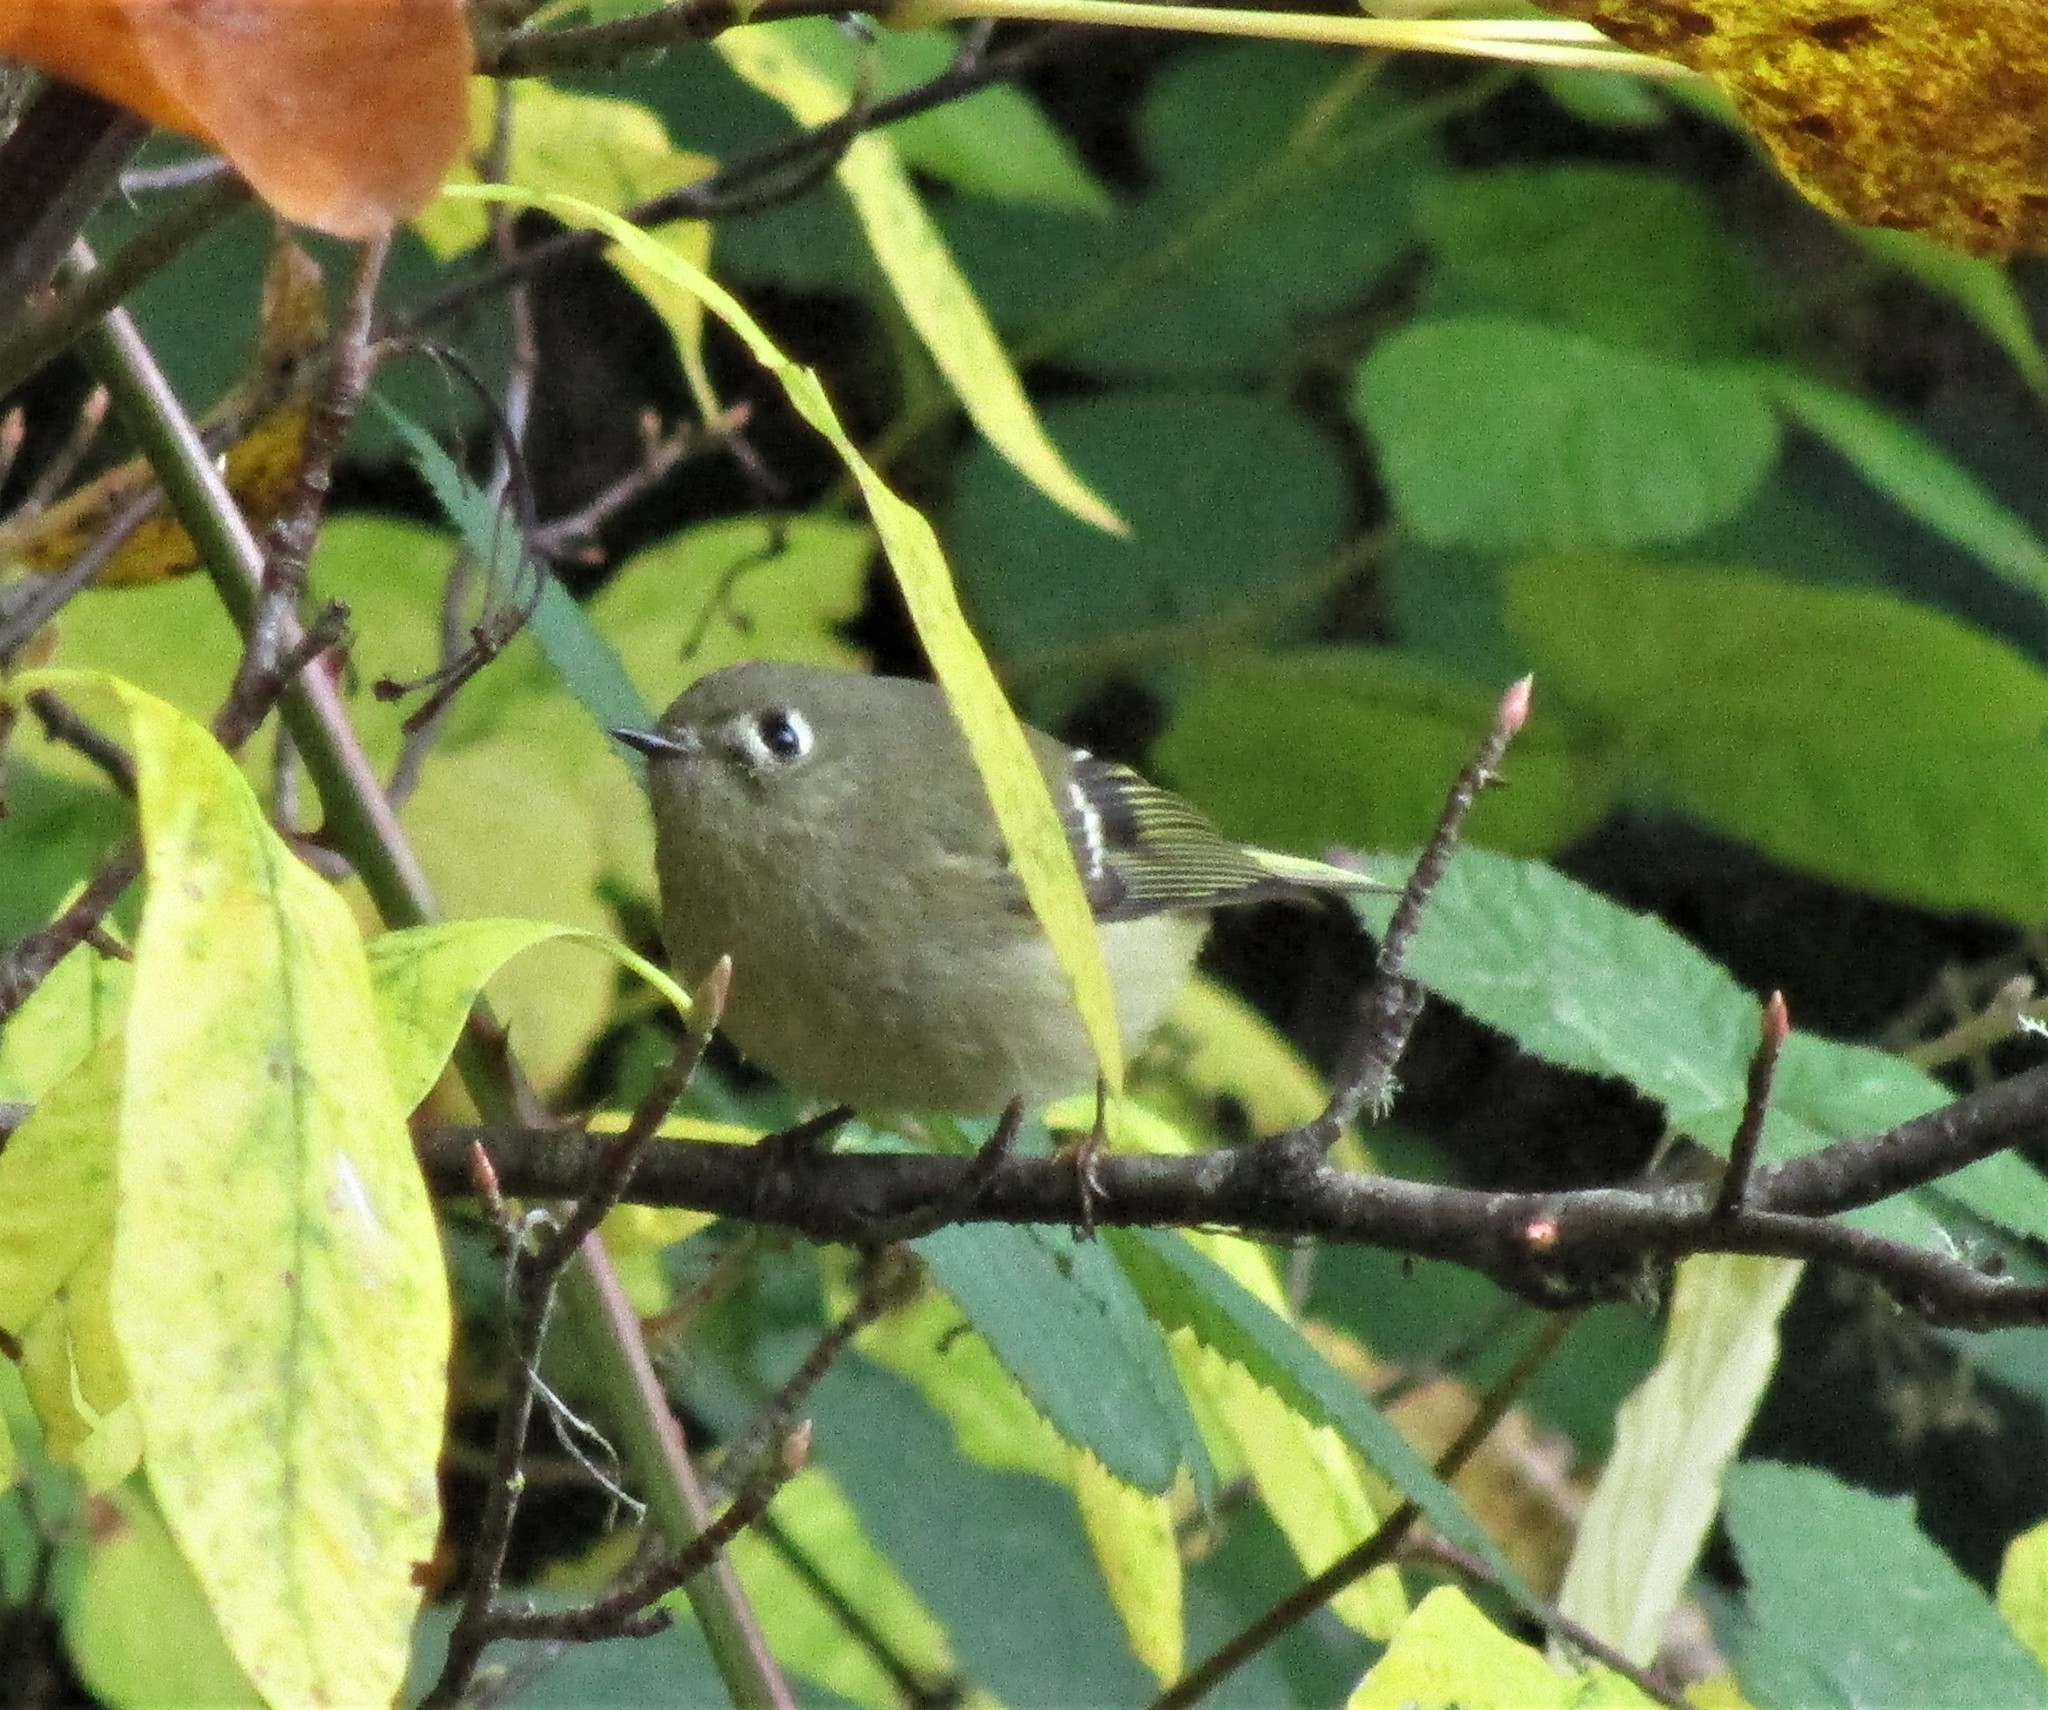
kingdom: Animalia
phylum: Chordata
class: Aves
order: Passeriformes
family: Regulidae
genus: Regulus
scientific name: Regulus calendula
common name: Ruby-crowned kinglet
